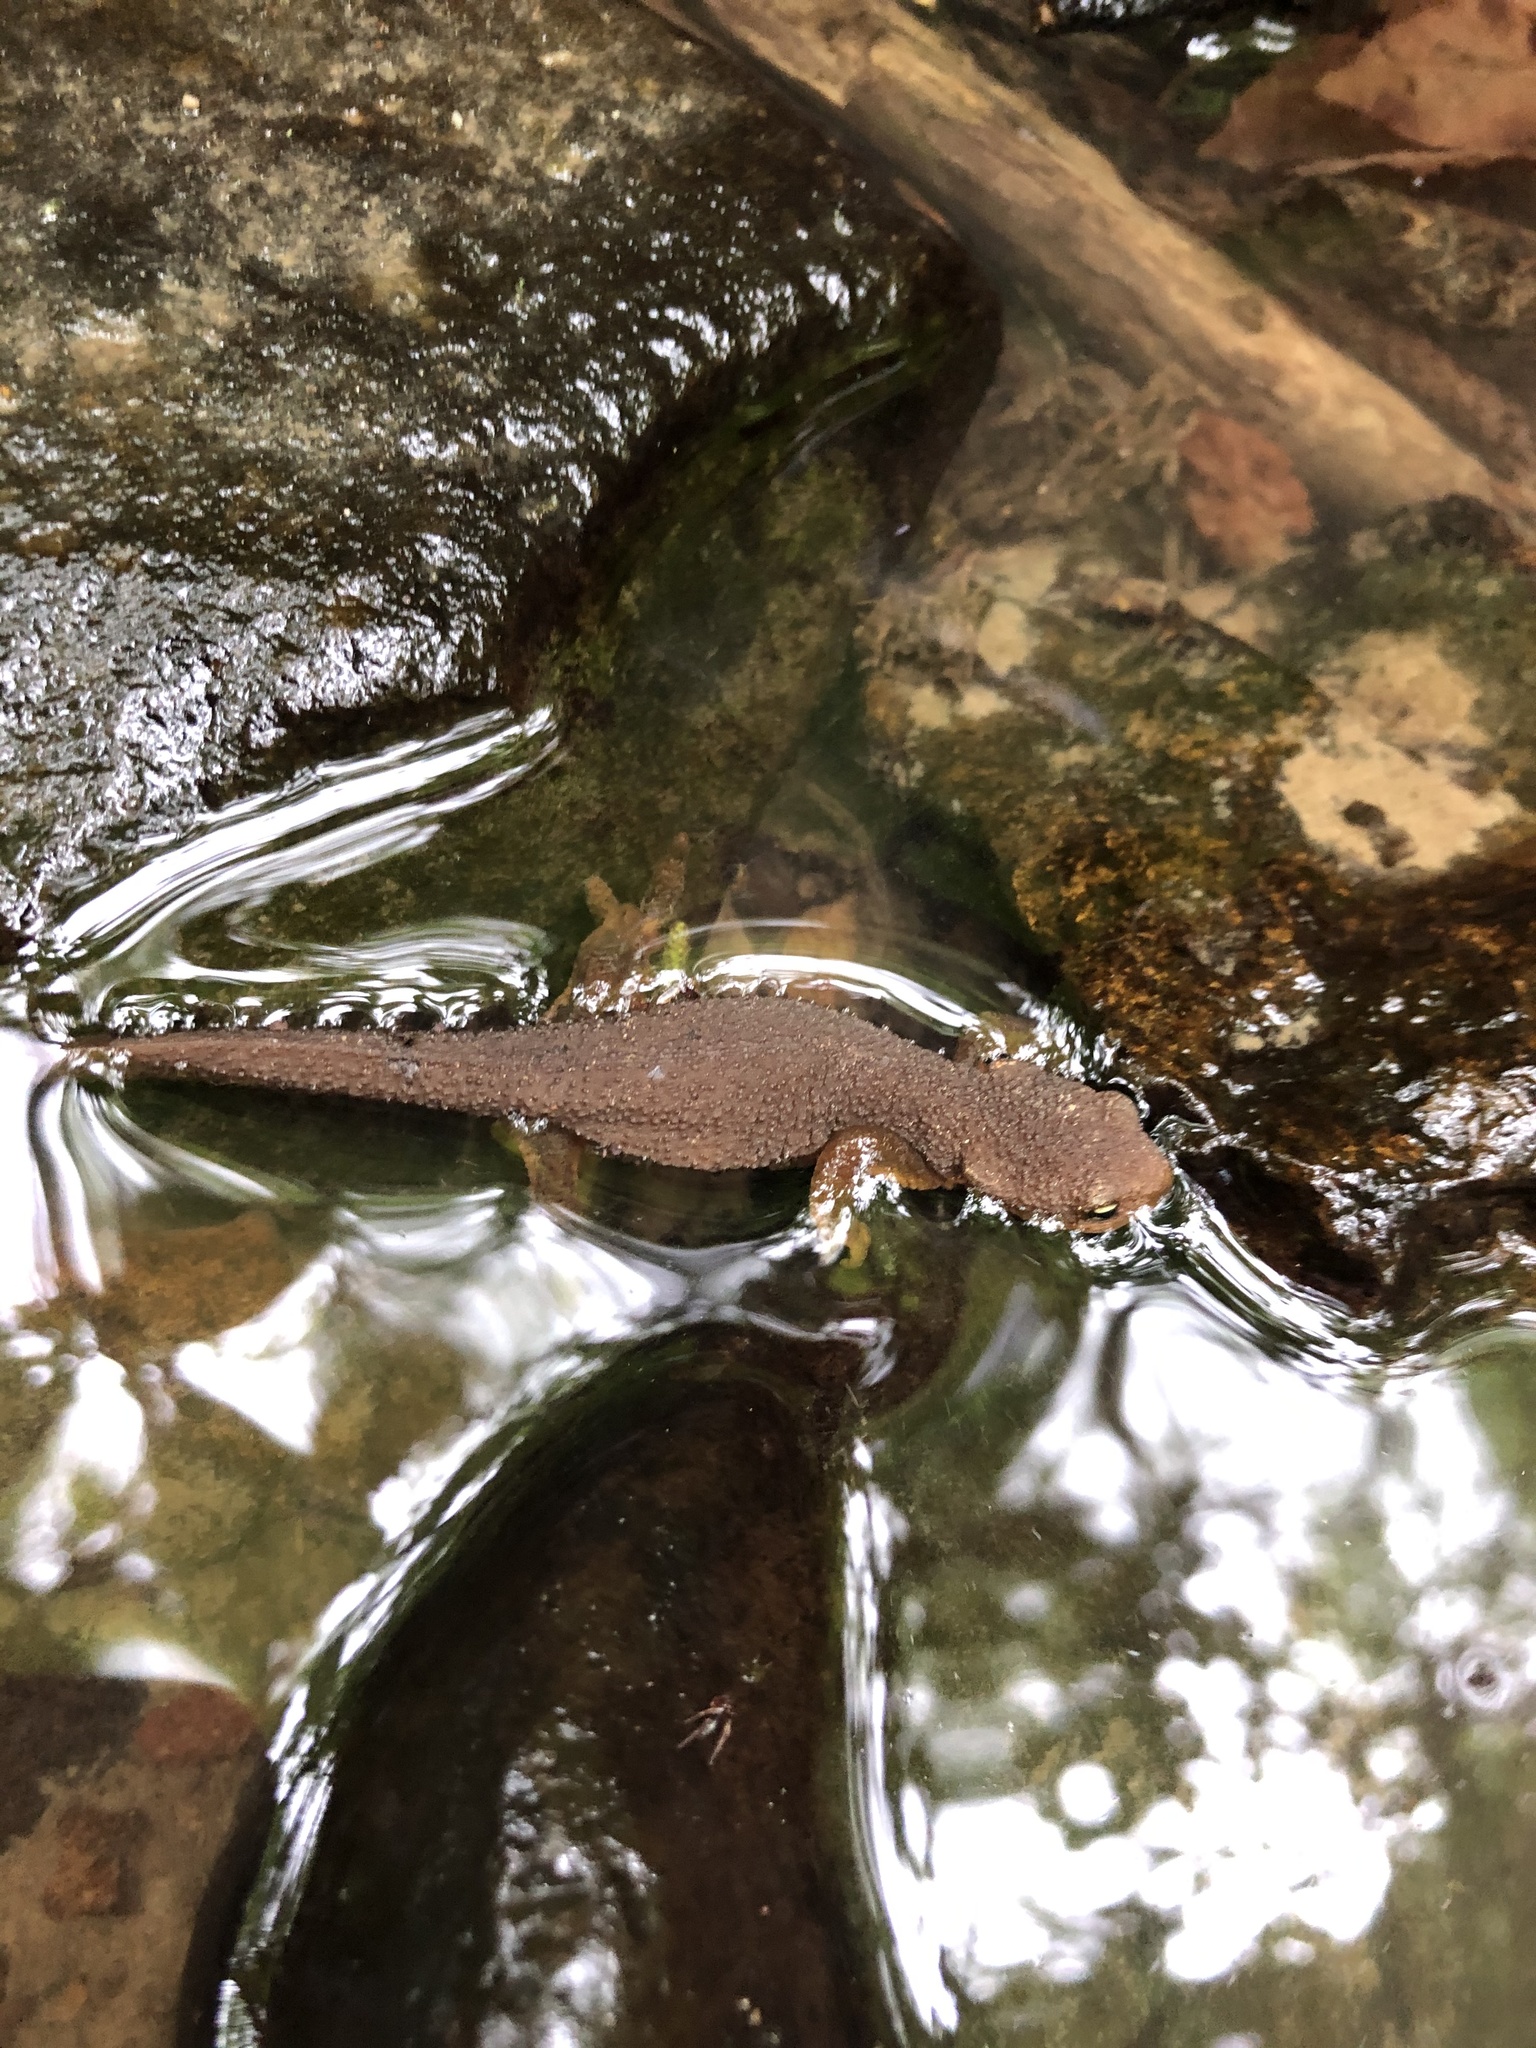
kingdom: Animalia
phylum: Chordata
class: Amphibia
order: Caudata
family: Salamandridae
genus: Taricha
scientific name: Taricha granulosa
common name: Roughskin newt
